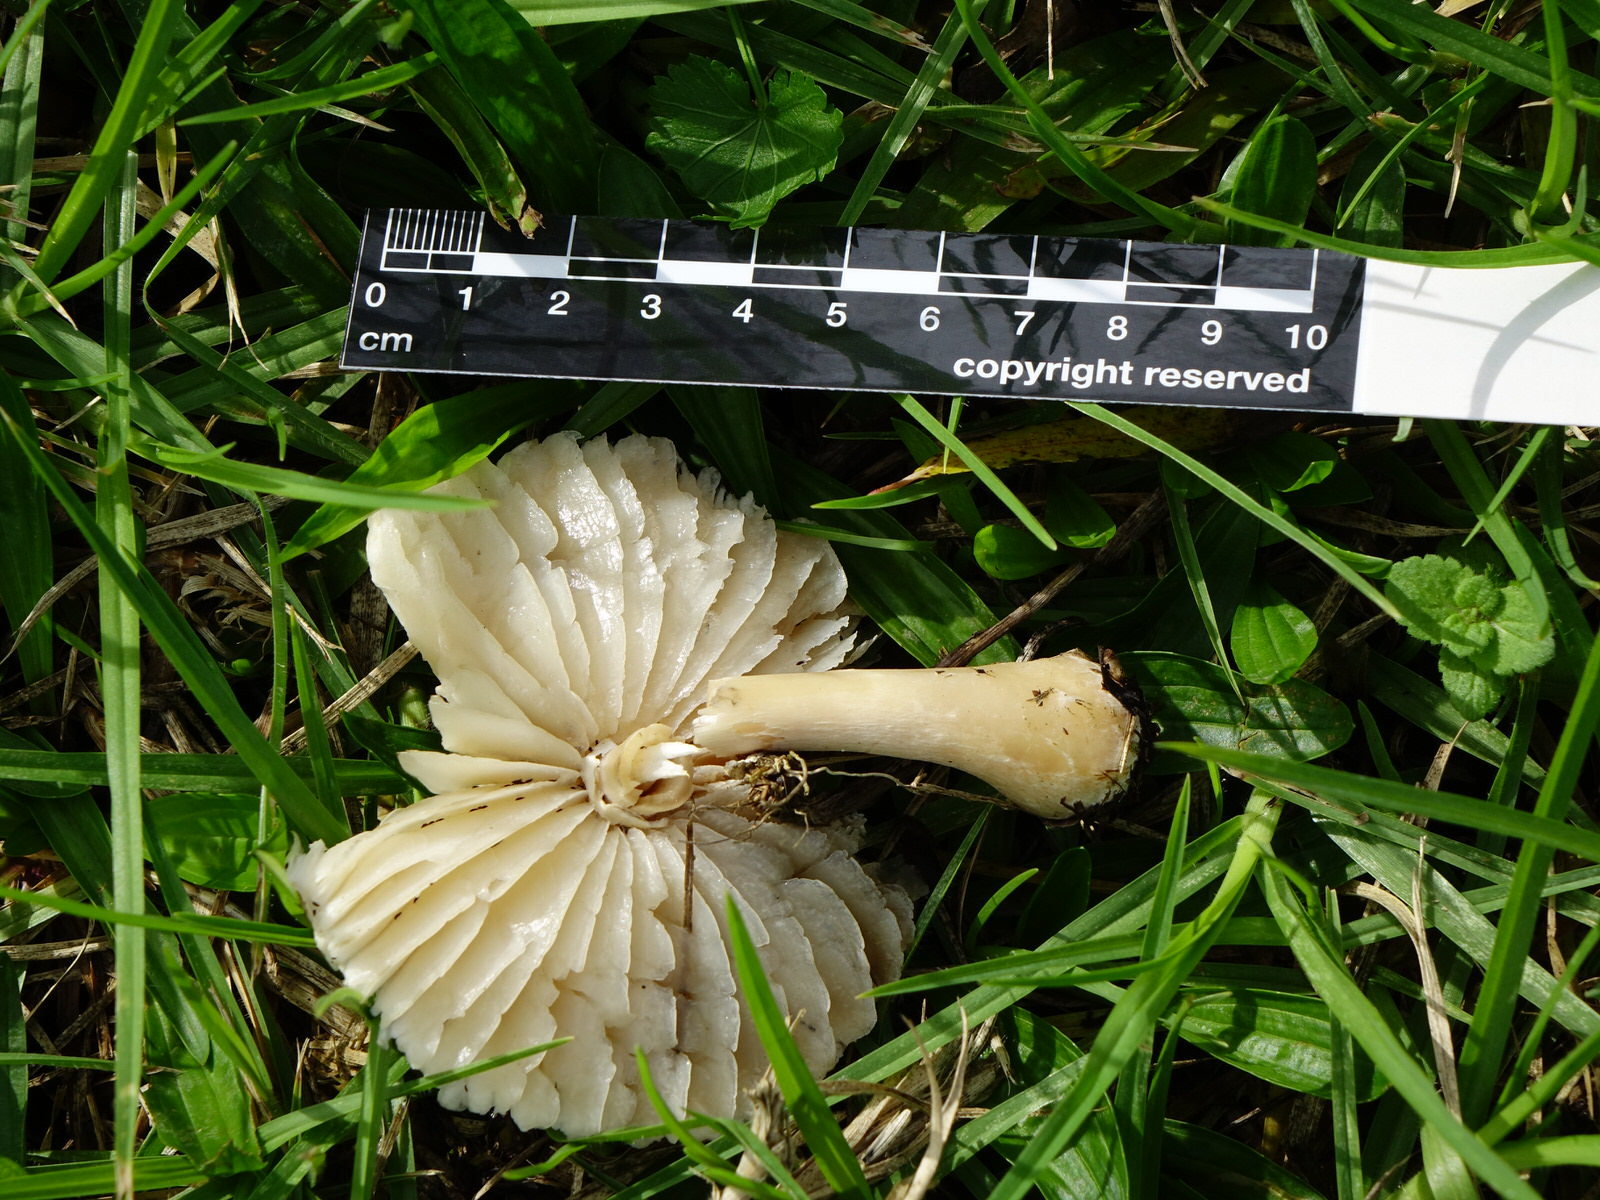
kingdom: Fungi
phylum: Basidiomycota
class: Agaricomycetes
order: Agaricales
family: Agaricaceae
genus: Leucoagaricus
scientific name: Leucoagaricus leucothites
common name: White dapperling
